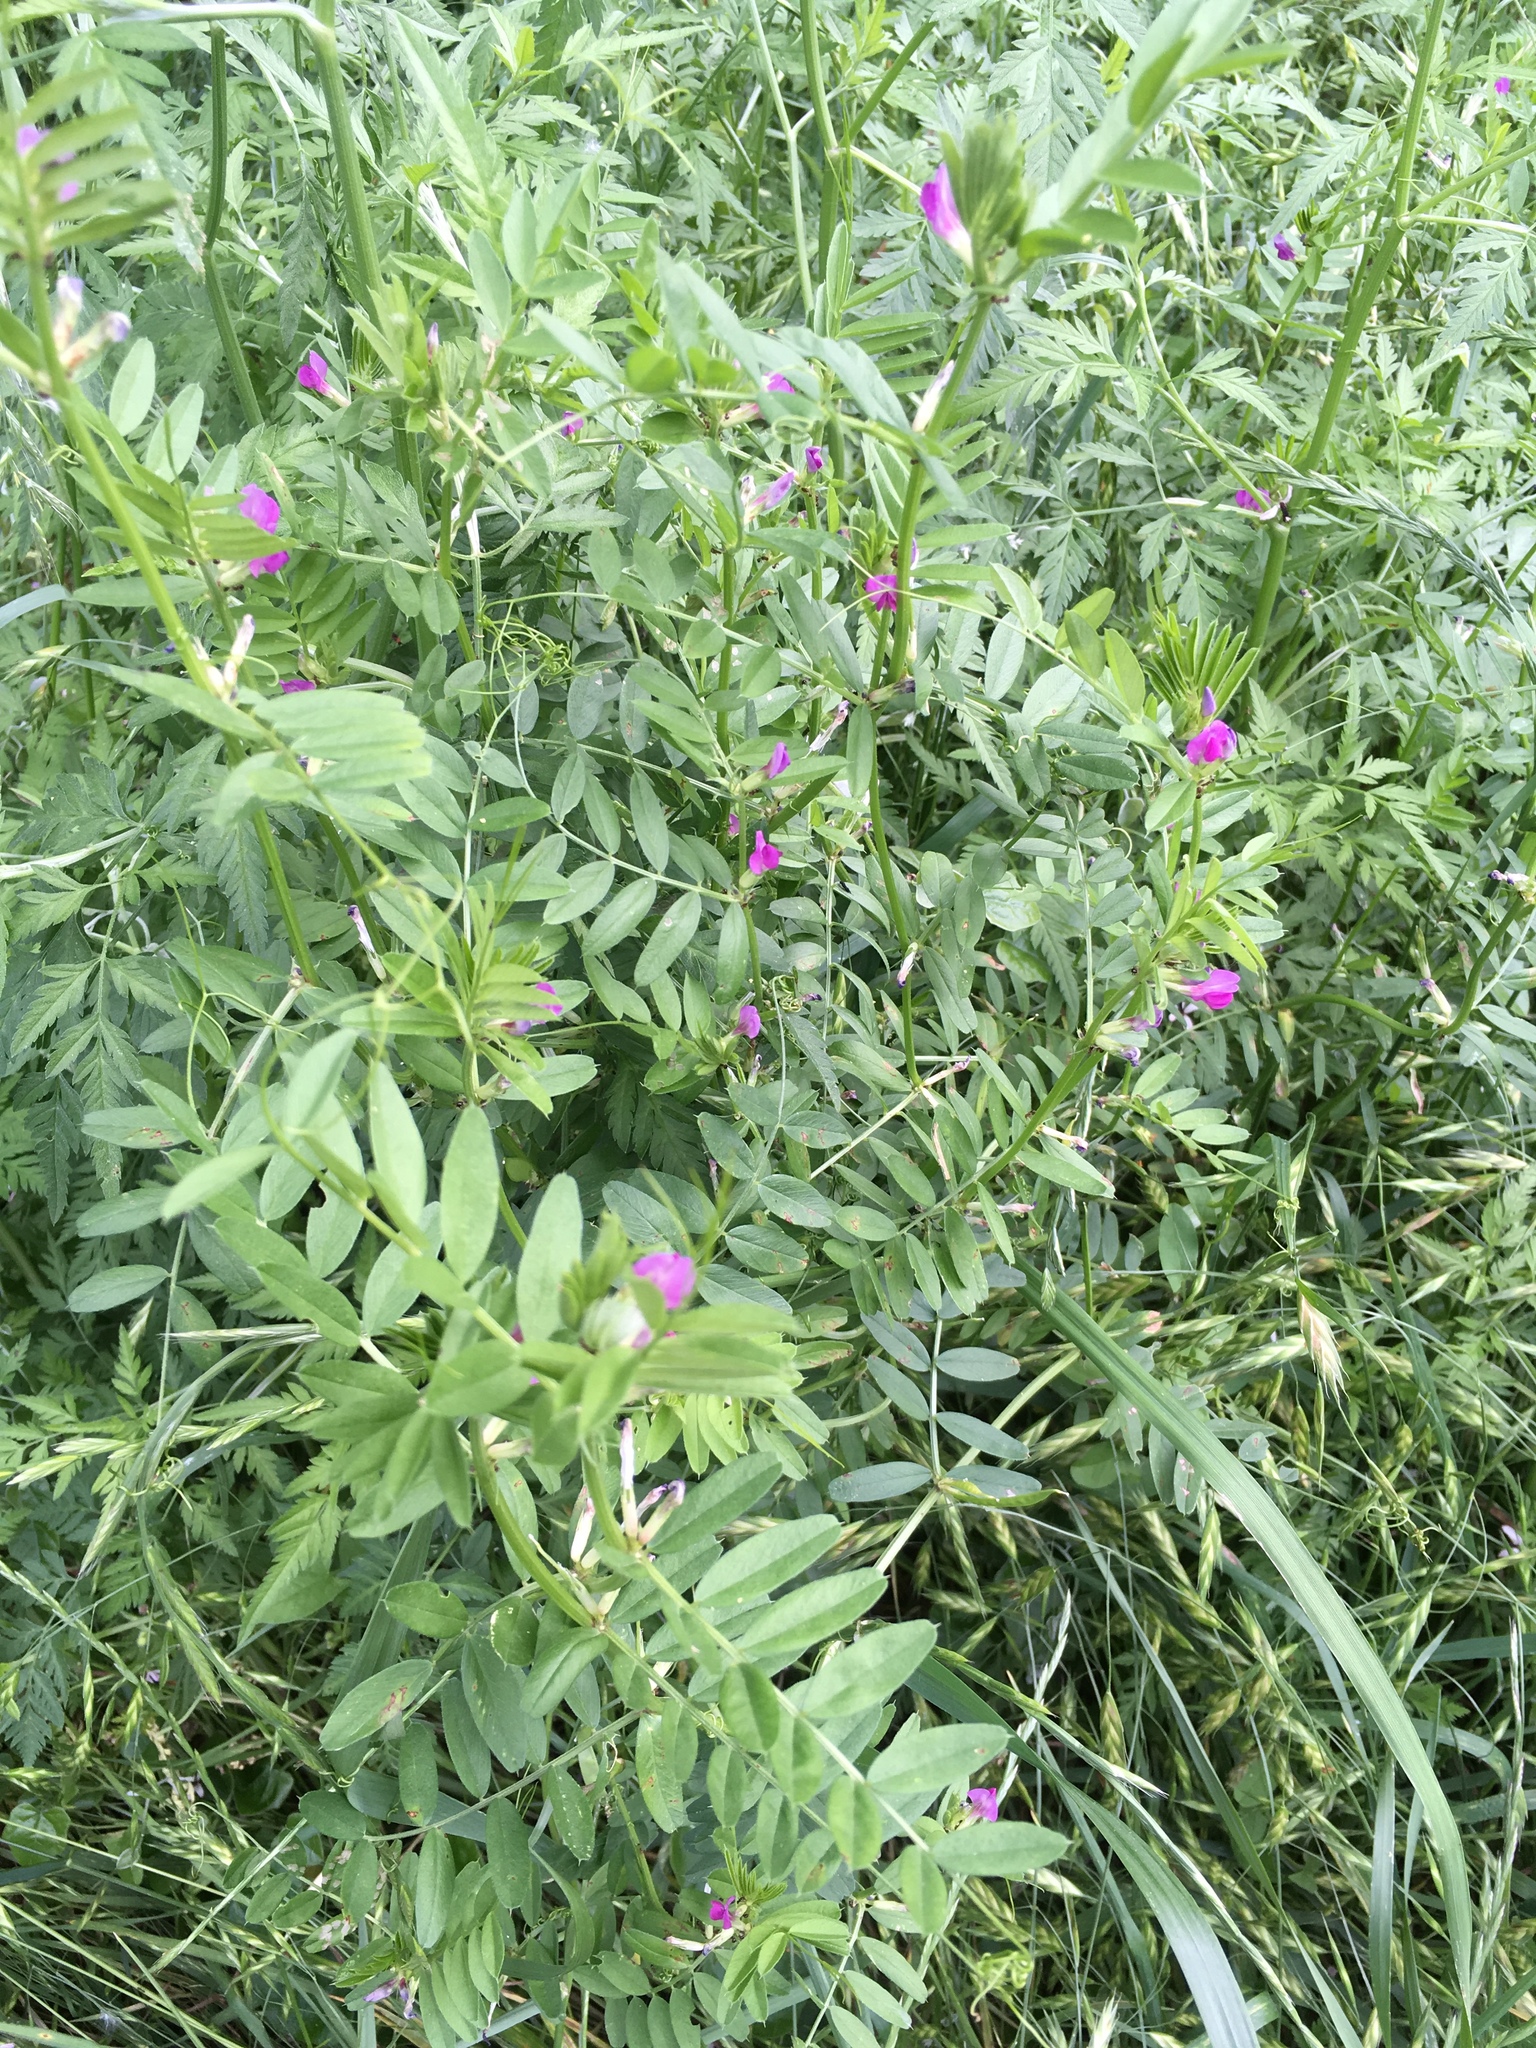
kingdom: Plantae
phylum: Tracheophyta
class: Magnoliopsida
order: Fabales
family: Fabaceae
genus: Vicia
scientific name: Vicia sativa
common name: Garden vetch
